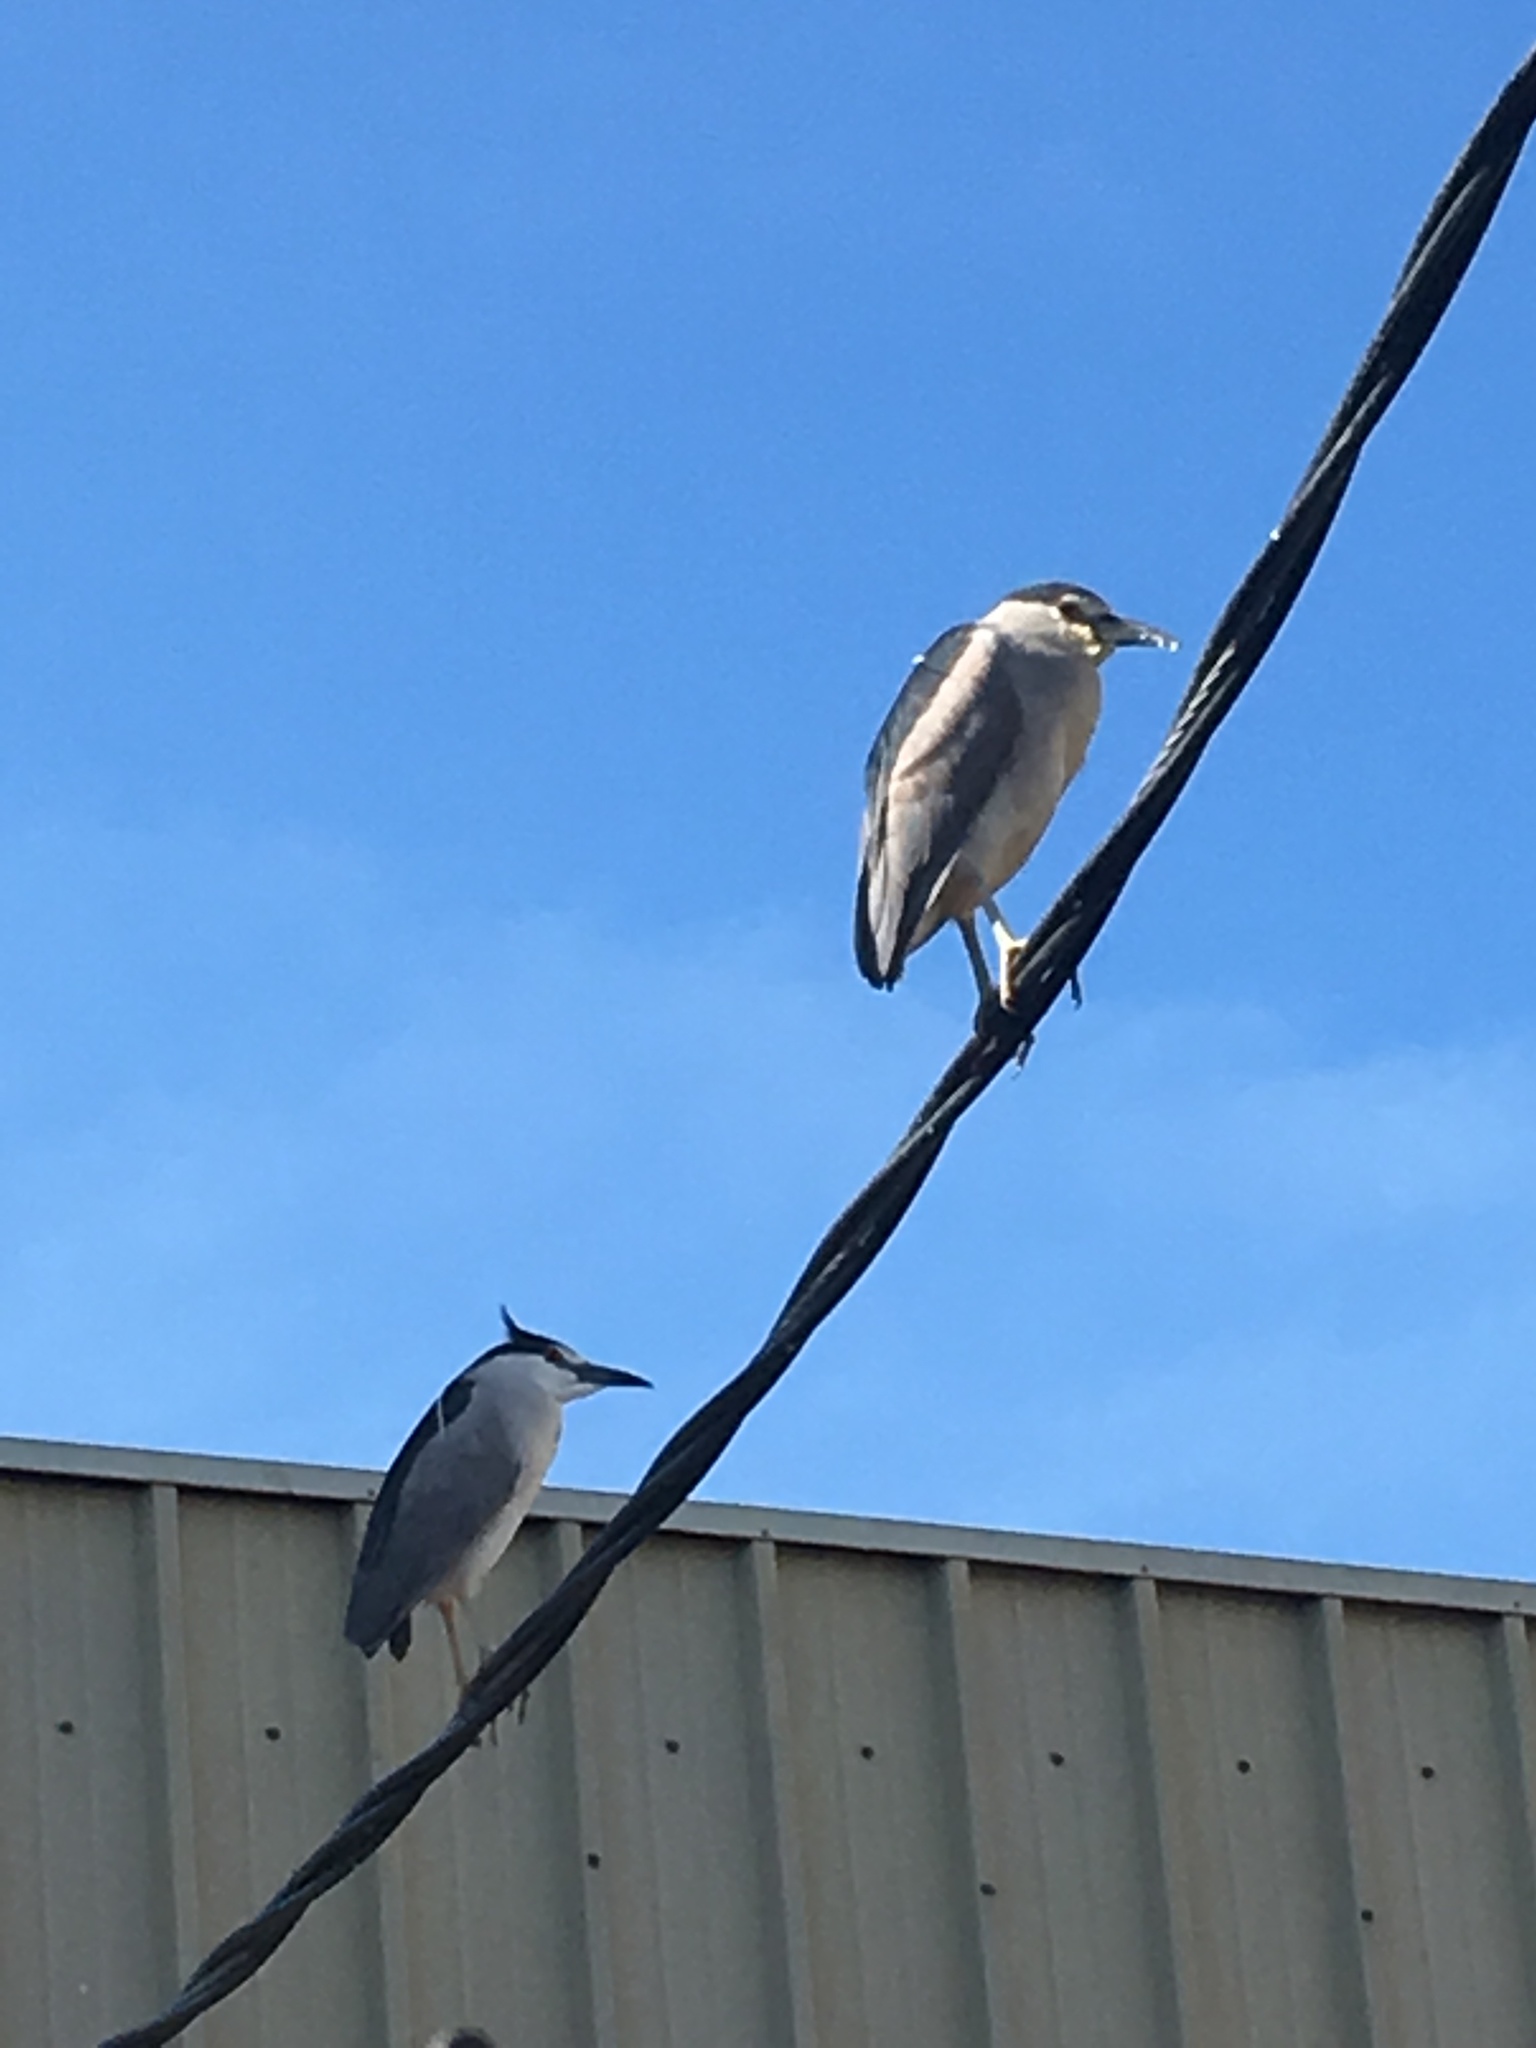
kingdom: Animalia
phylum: Chordata
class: Aves
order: Pelecaniformes
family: Ardeidae
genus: Nycticorax
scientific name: Nycticorax nycticorax
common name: Black-crowned night heron
